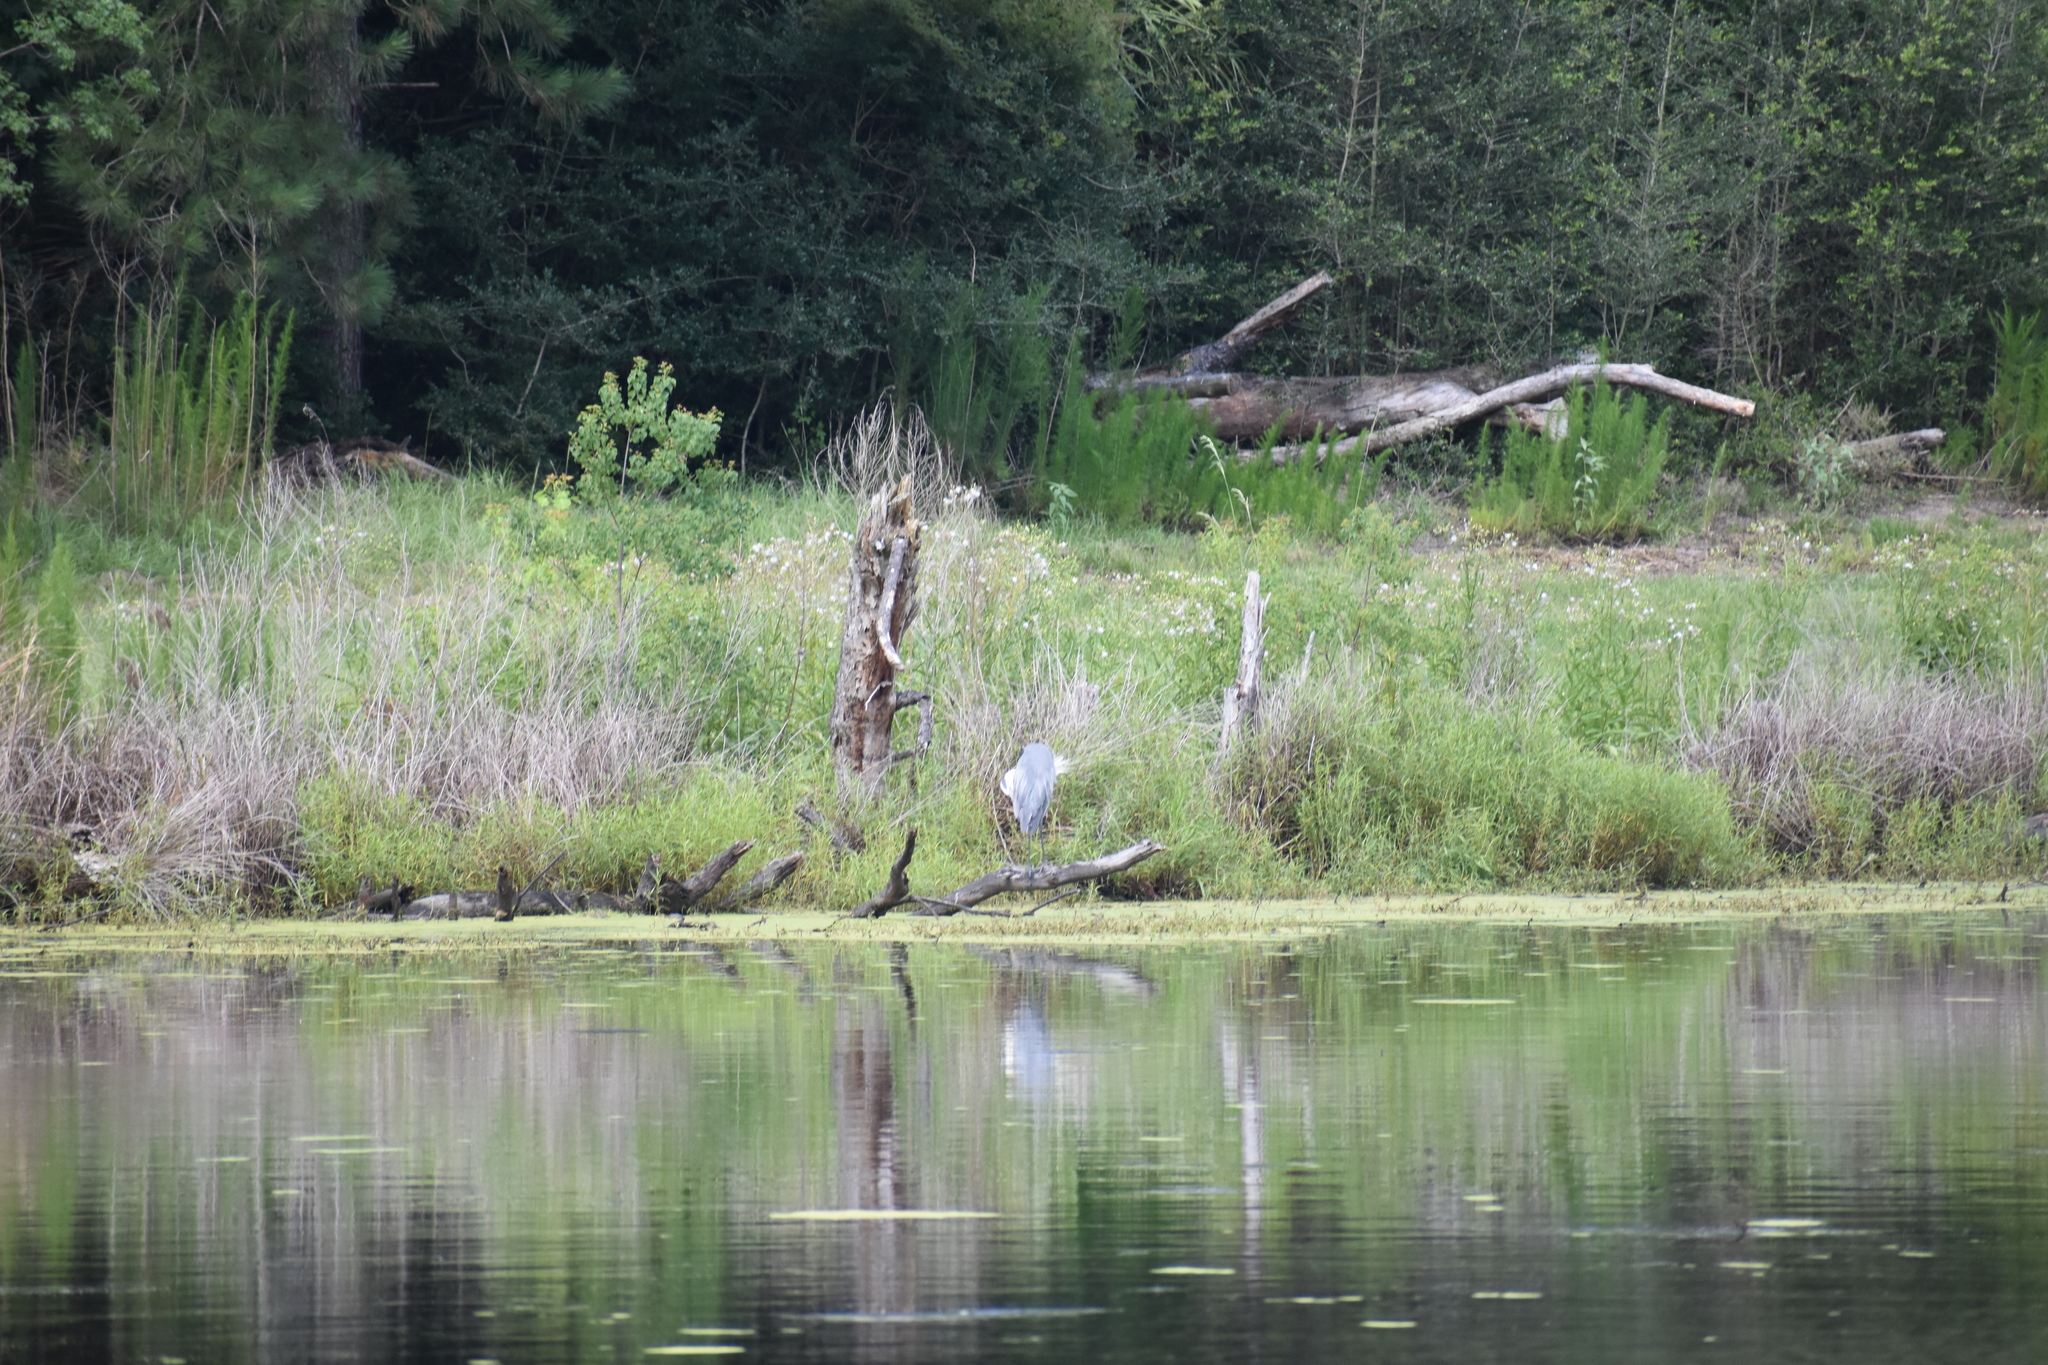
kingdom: Animalia
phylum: Chordata
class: Aves
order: Pelecaniformes
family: Ardeidae
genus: Ardea
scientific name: Ardea herodias
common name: Great blue heron
